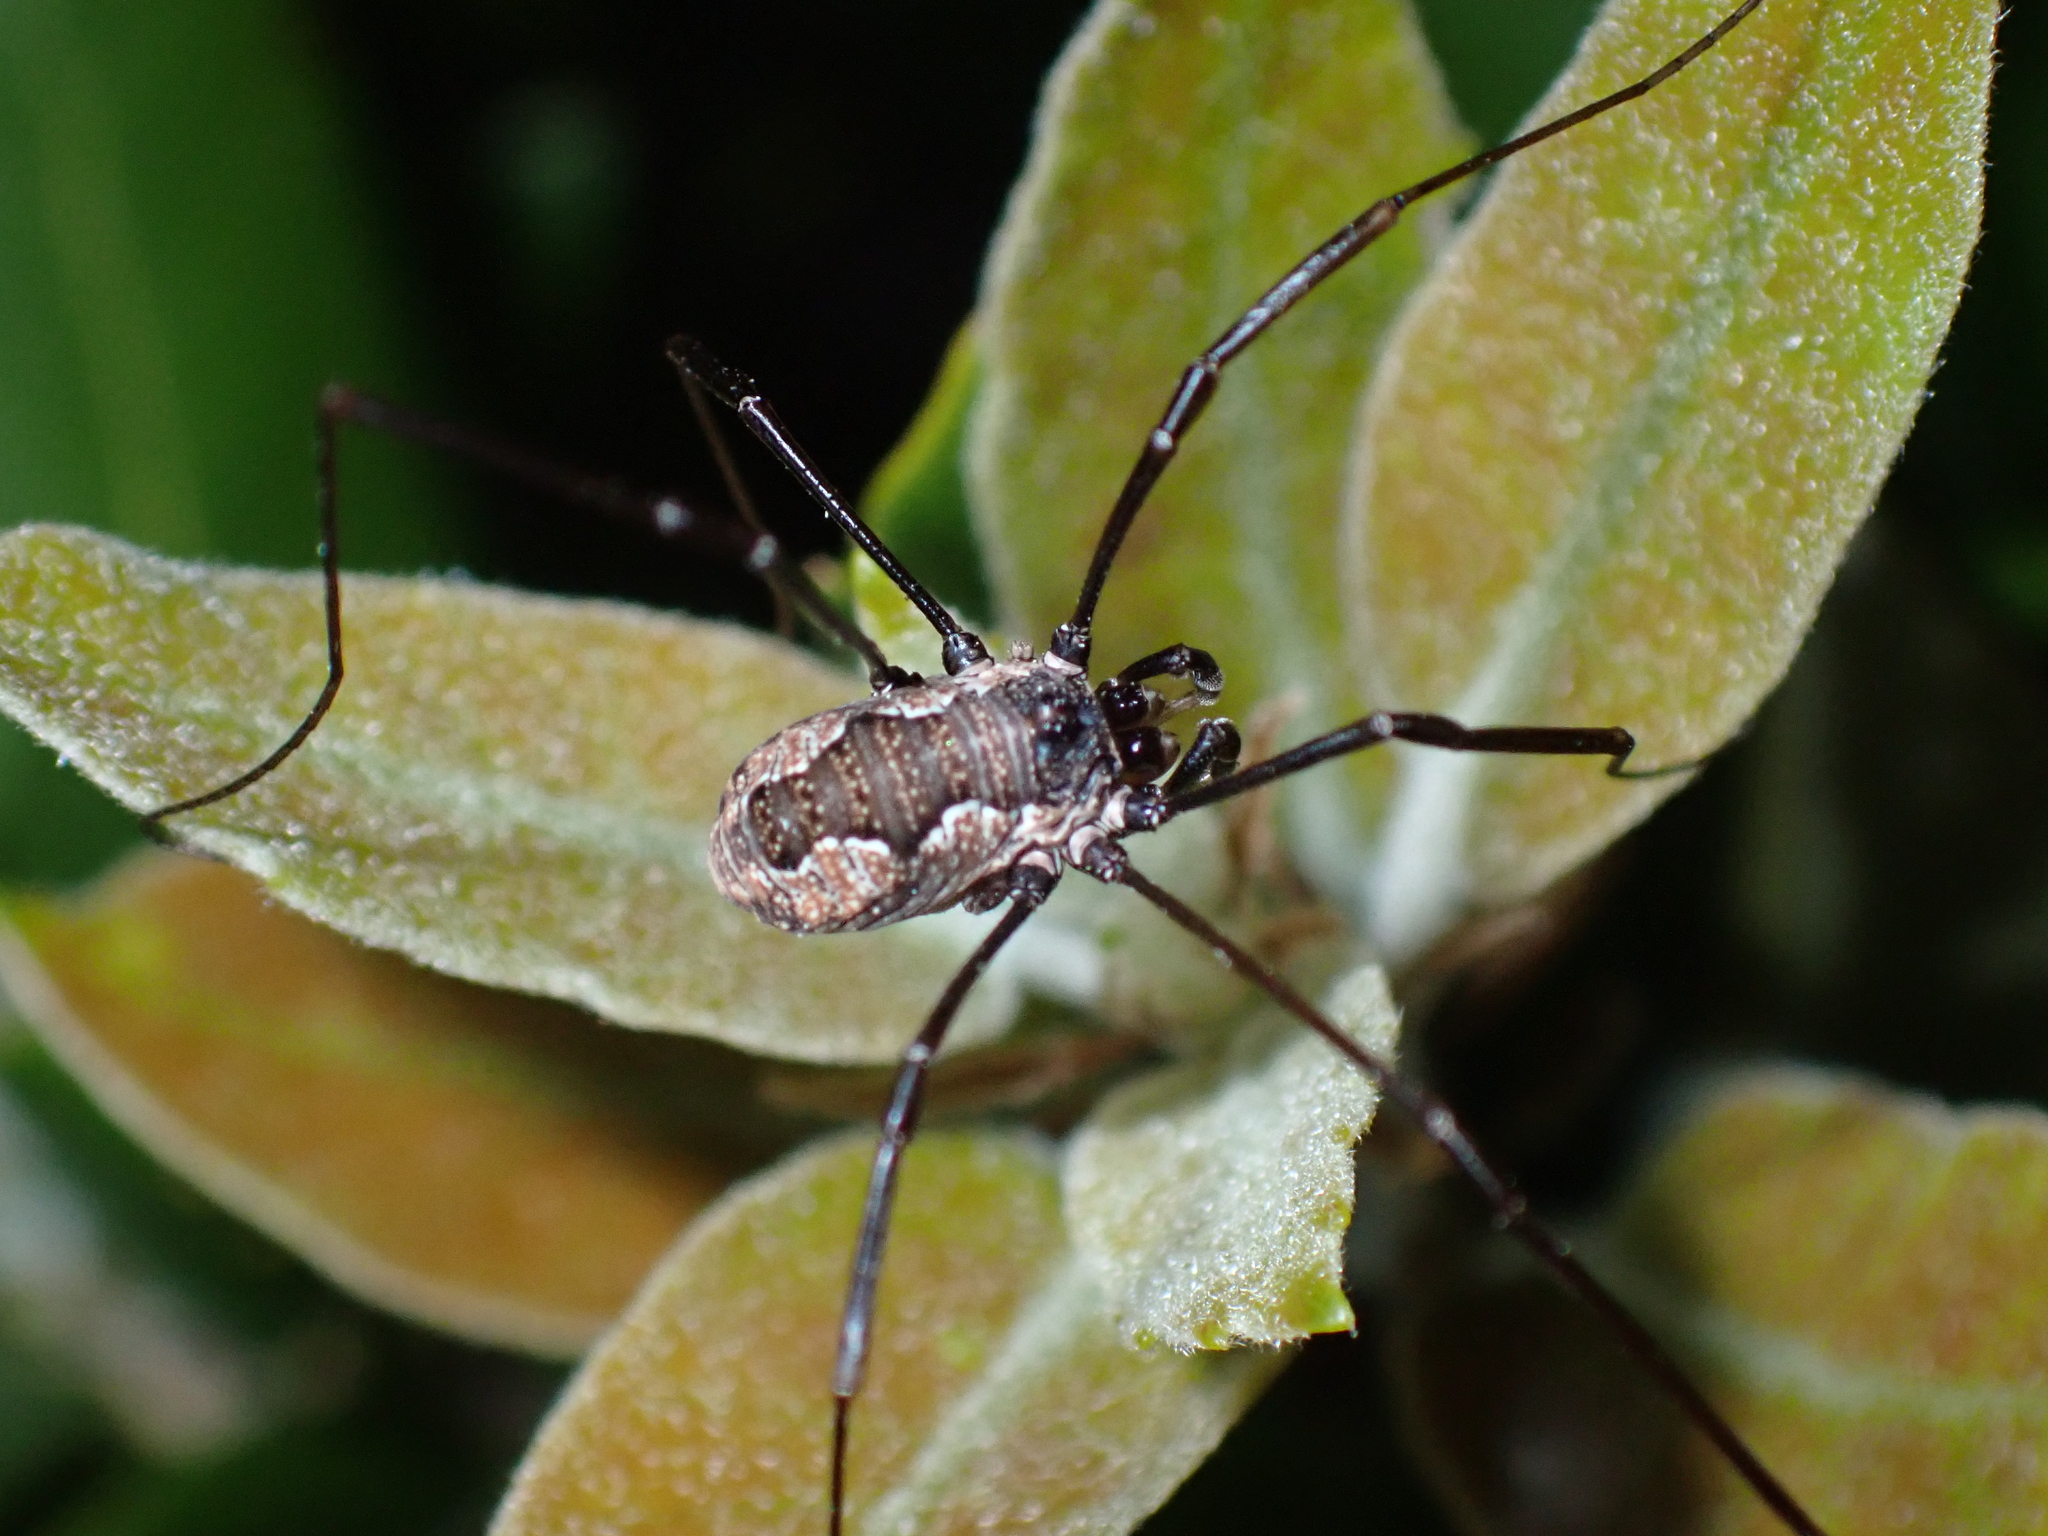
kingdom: Animalia
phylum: Arthropoda
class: Arachnida
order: Opiliones
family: Phalangiidae
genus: Dasylobus
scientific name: Dasylobus graniferus
